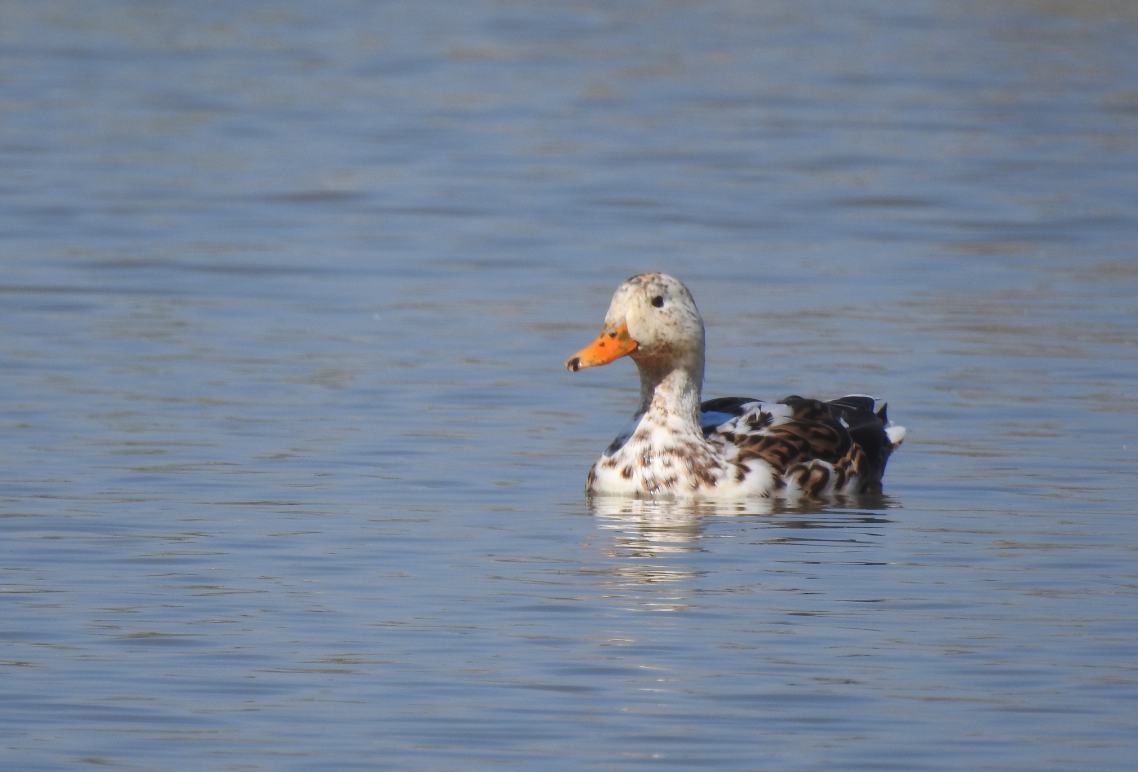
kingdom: Animalia
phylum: Chordata
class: Aves
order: Anseriformes
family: Anatidae
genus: Anas
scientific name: Anas platyrhynchos
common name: Mallard
